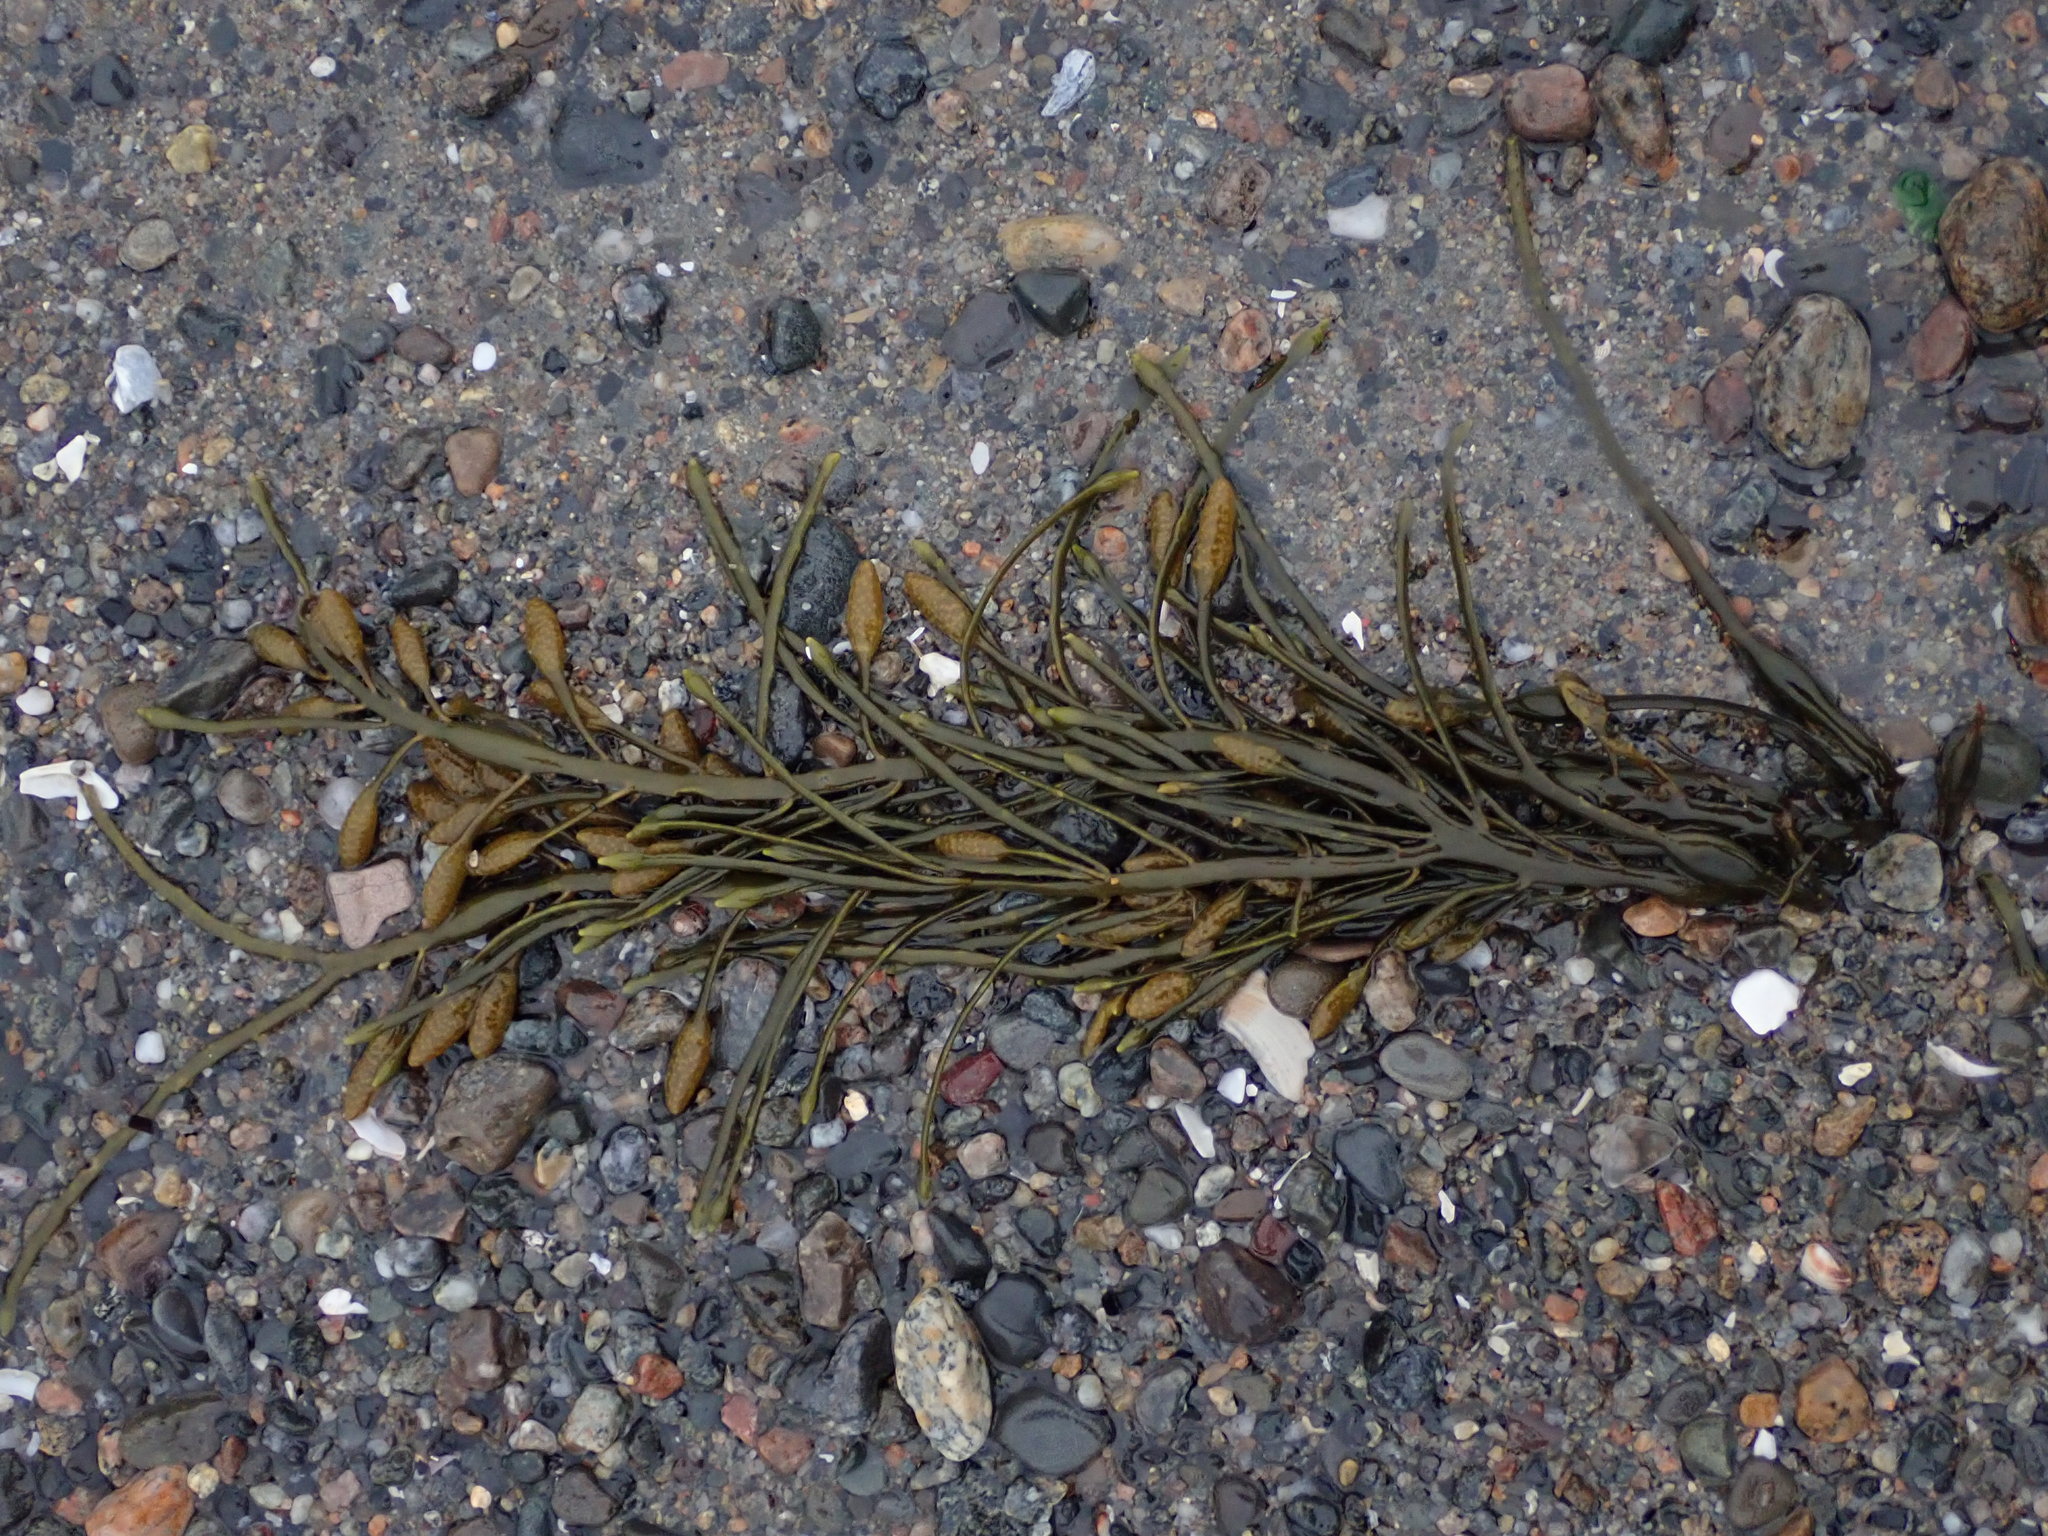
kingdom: Chromista
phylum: Ochrophyta
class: Phaeophyceae
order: Fucales
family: Fucaceae
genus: Ascophyllum
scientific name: Ascophyllum nodosum
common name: Knotted wrack
